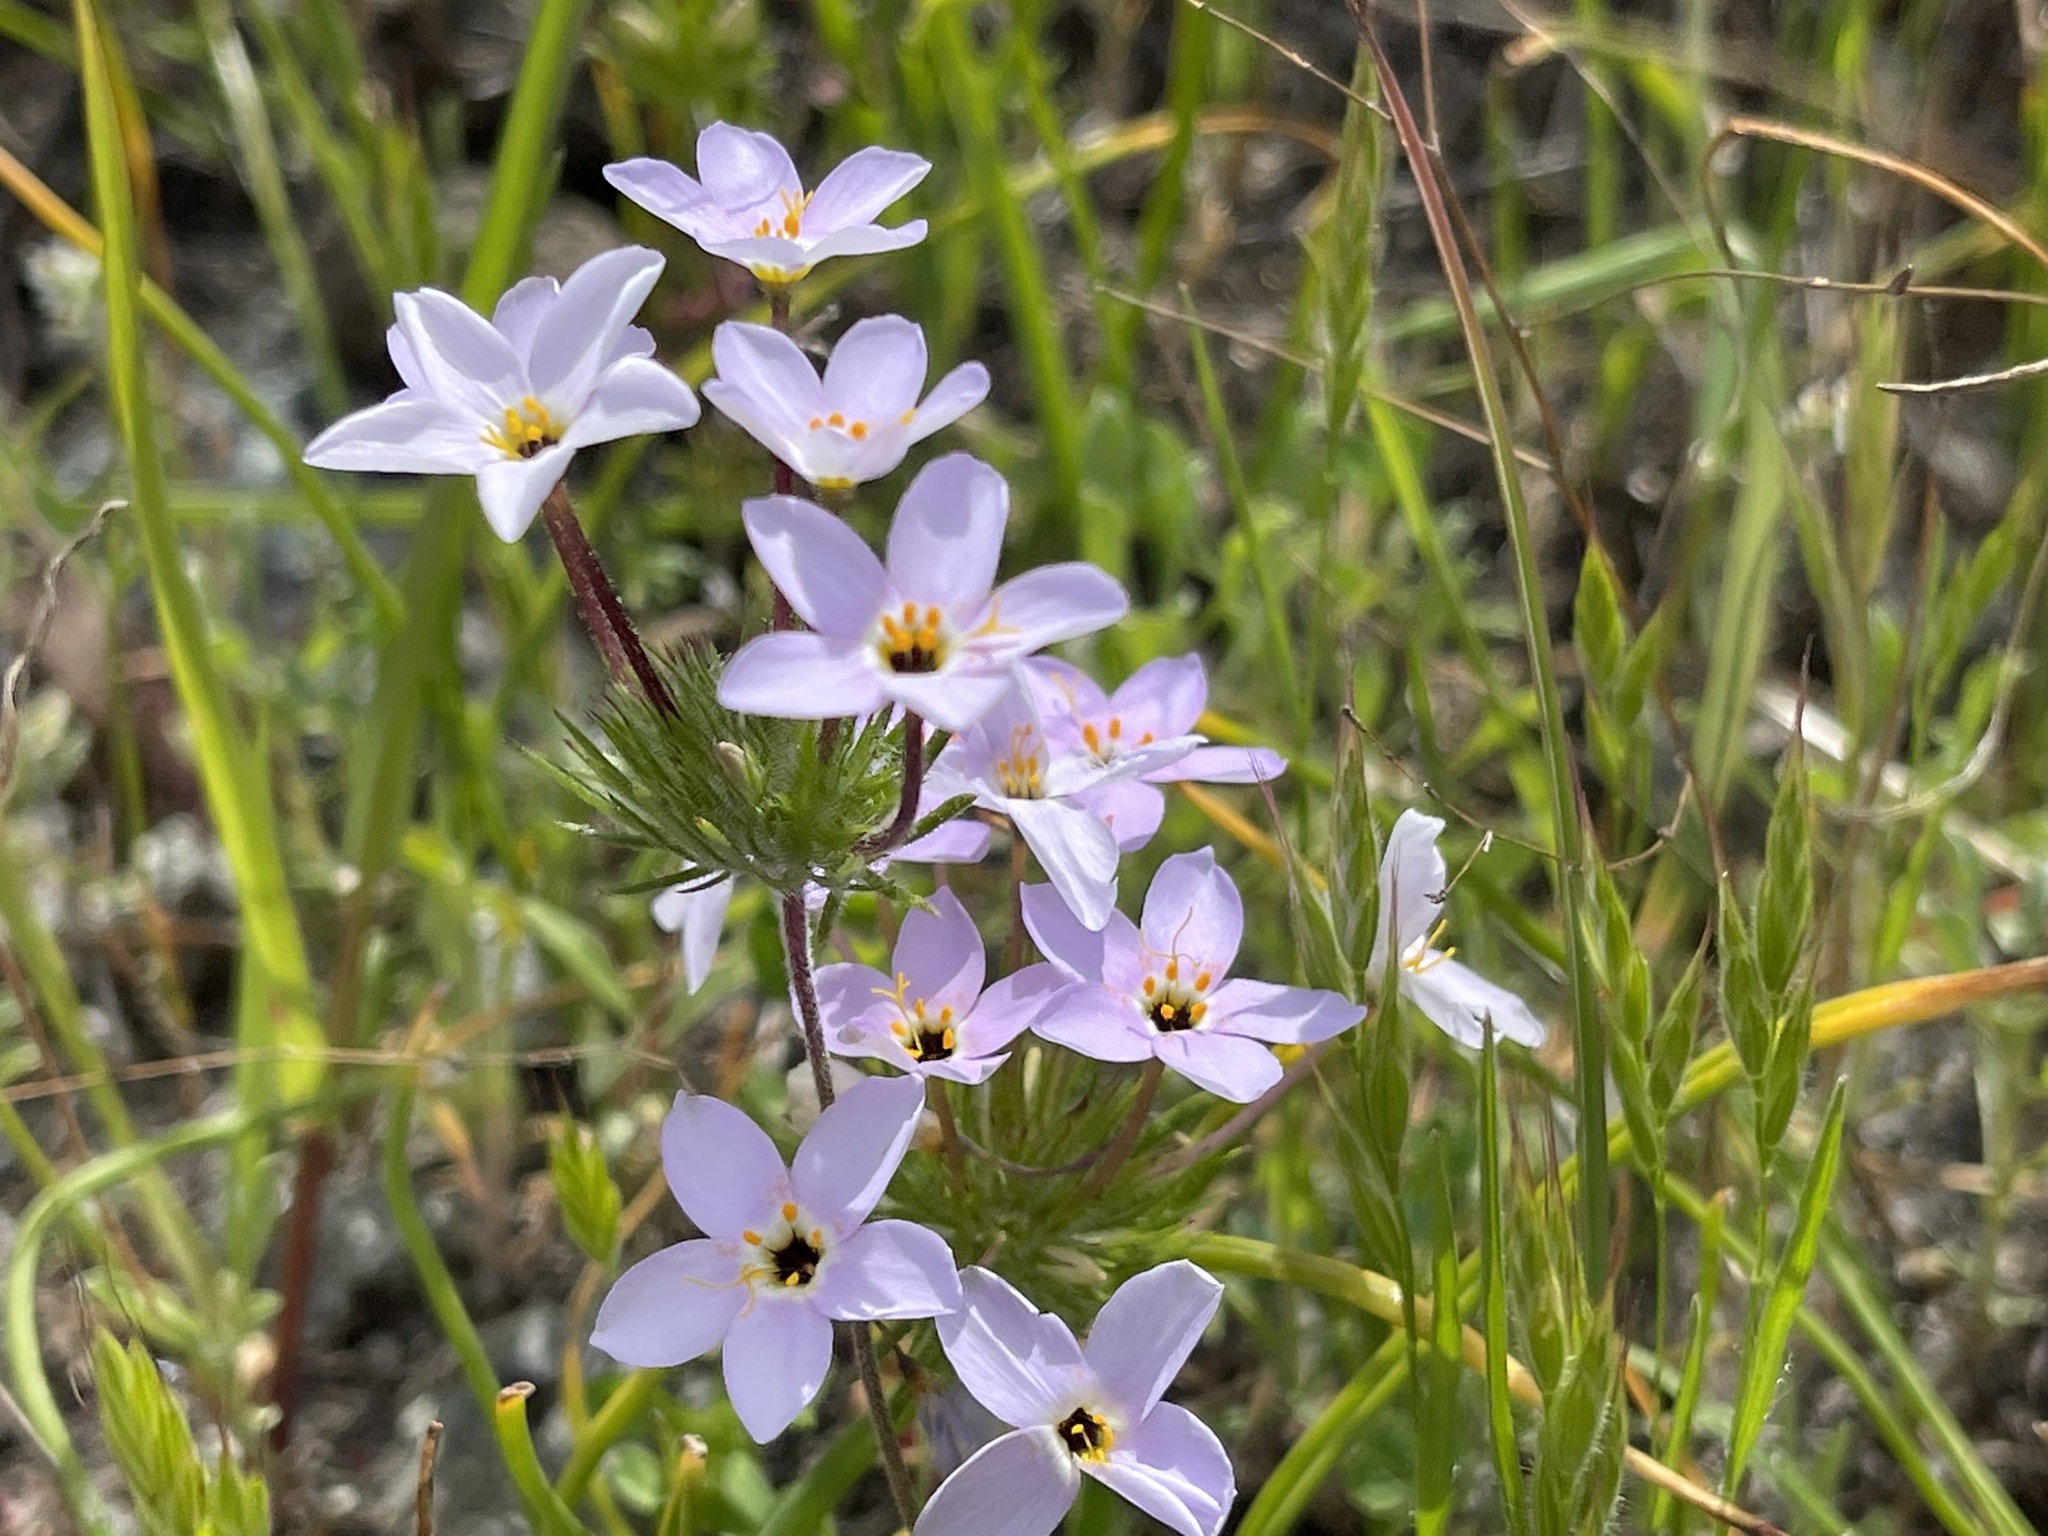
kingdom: Plantae
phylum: Tracheophyta
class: Magnoliopsida
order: Ericales
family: Polemoniaceae
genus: Leptosiphon
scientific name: Leptosiphon androsaceus
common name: False babystars
